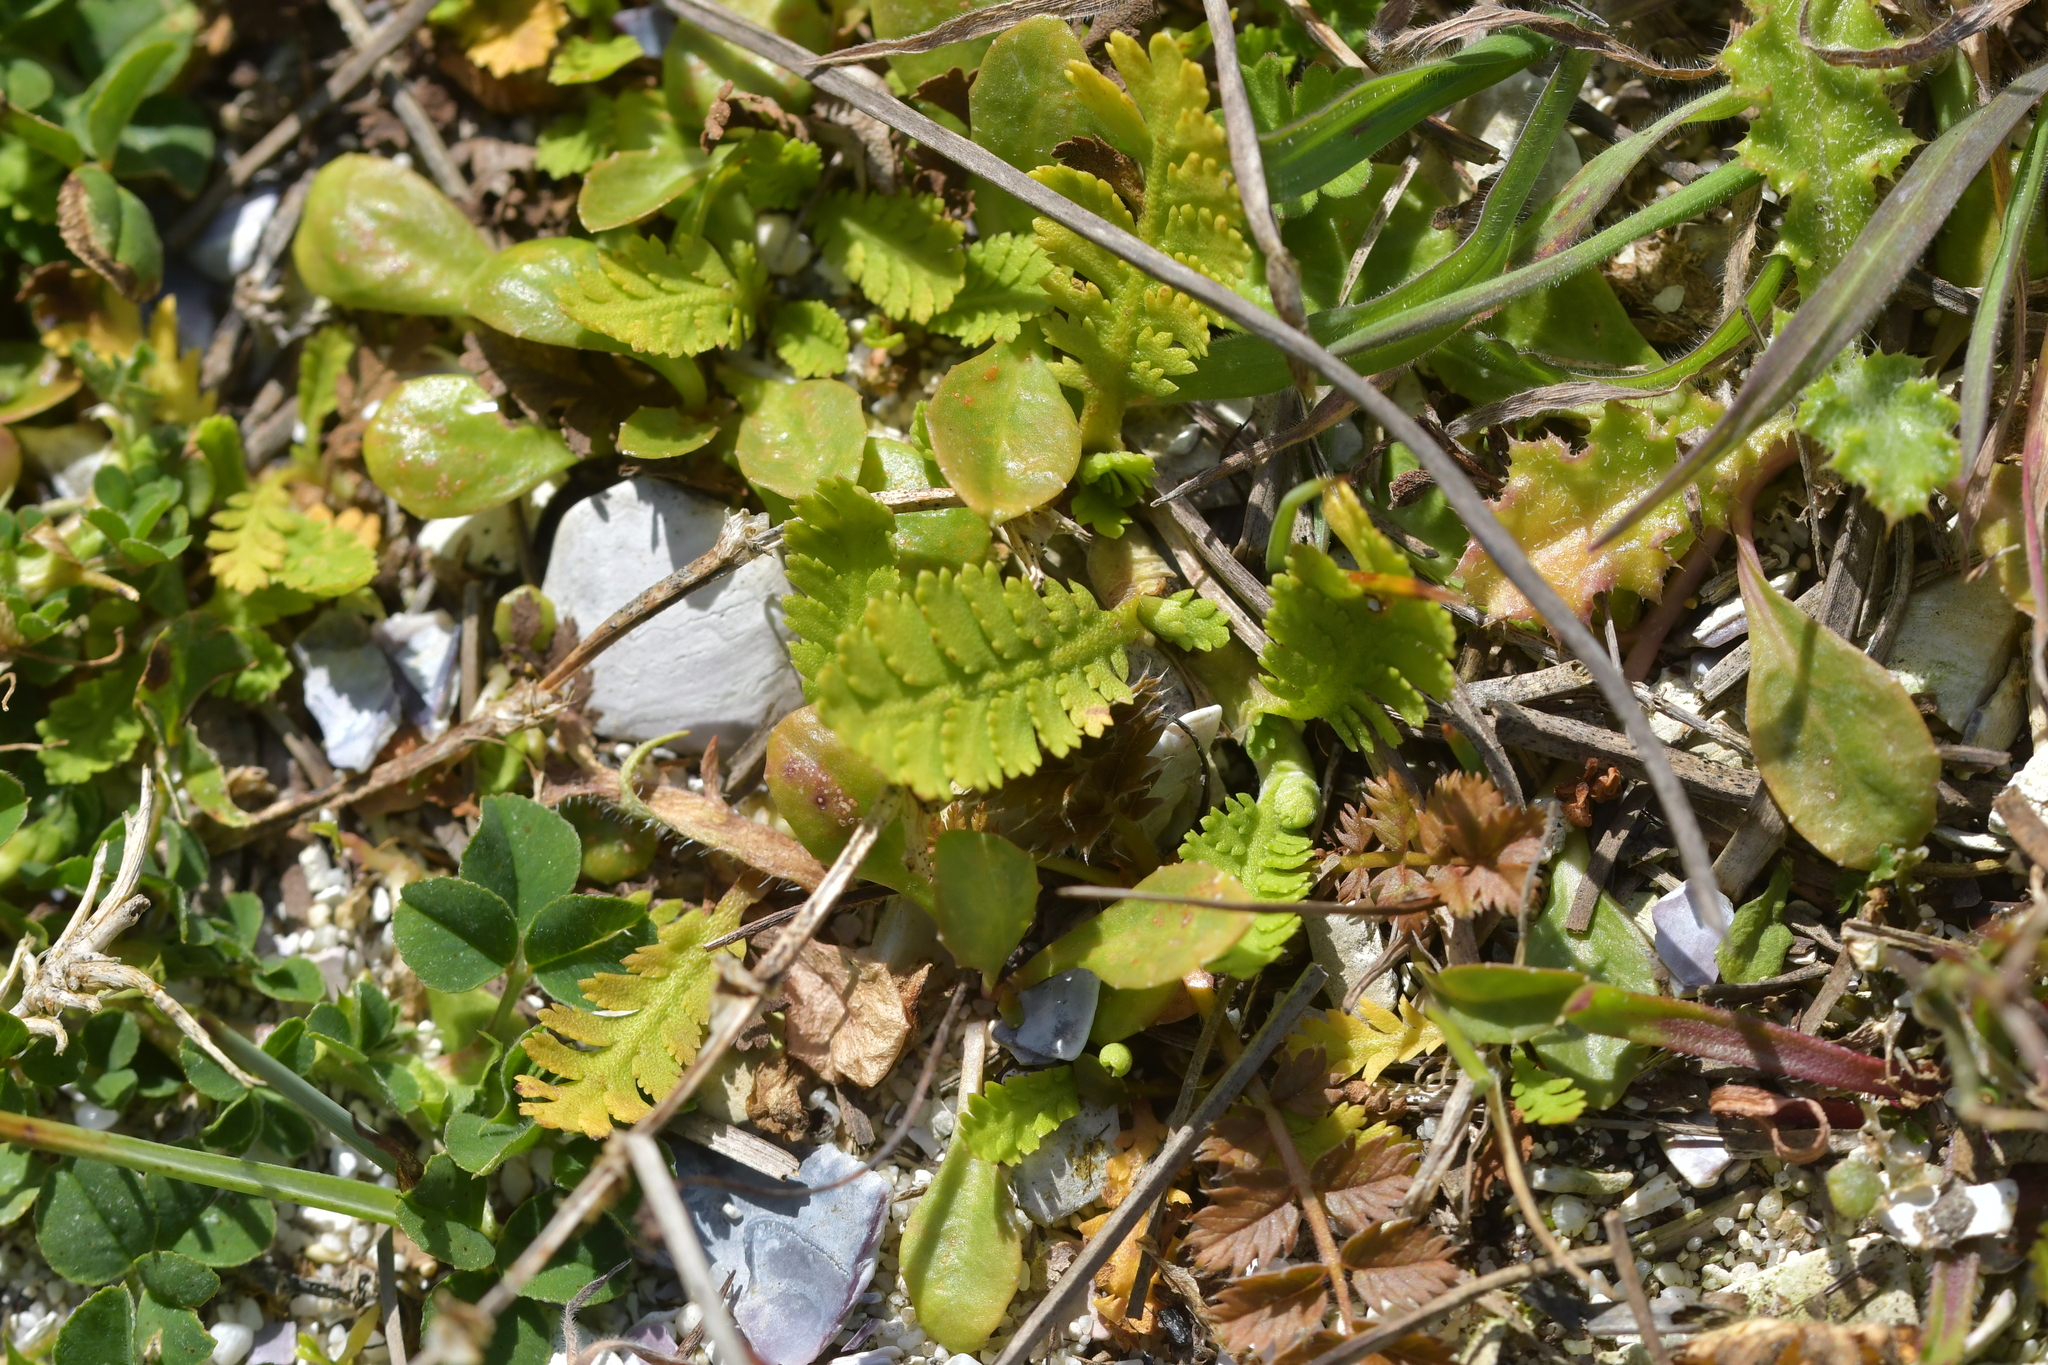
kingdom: Plantae
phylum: Tracheophyta
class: Magnoliopsida
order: Asterales
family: Asteraceae
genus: Leptinella
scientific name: Leptinella potentillina
